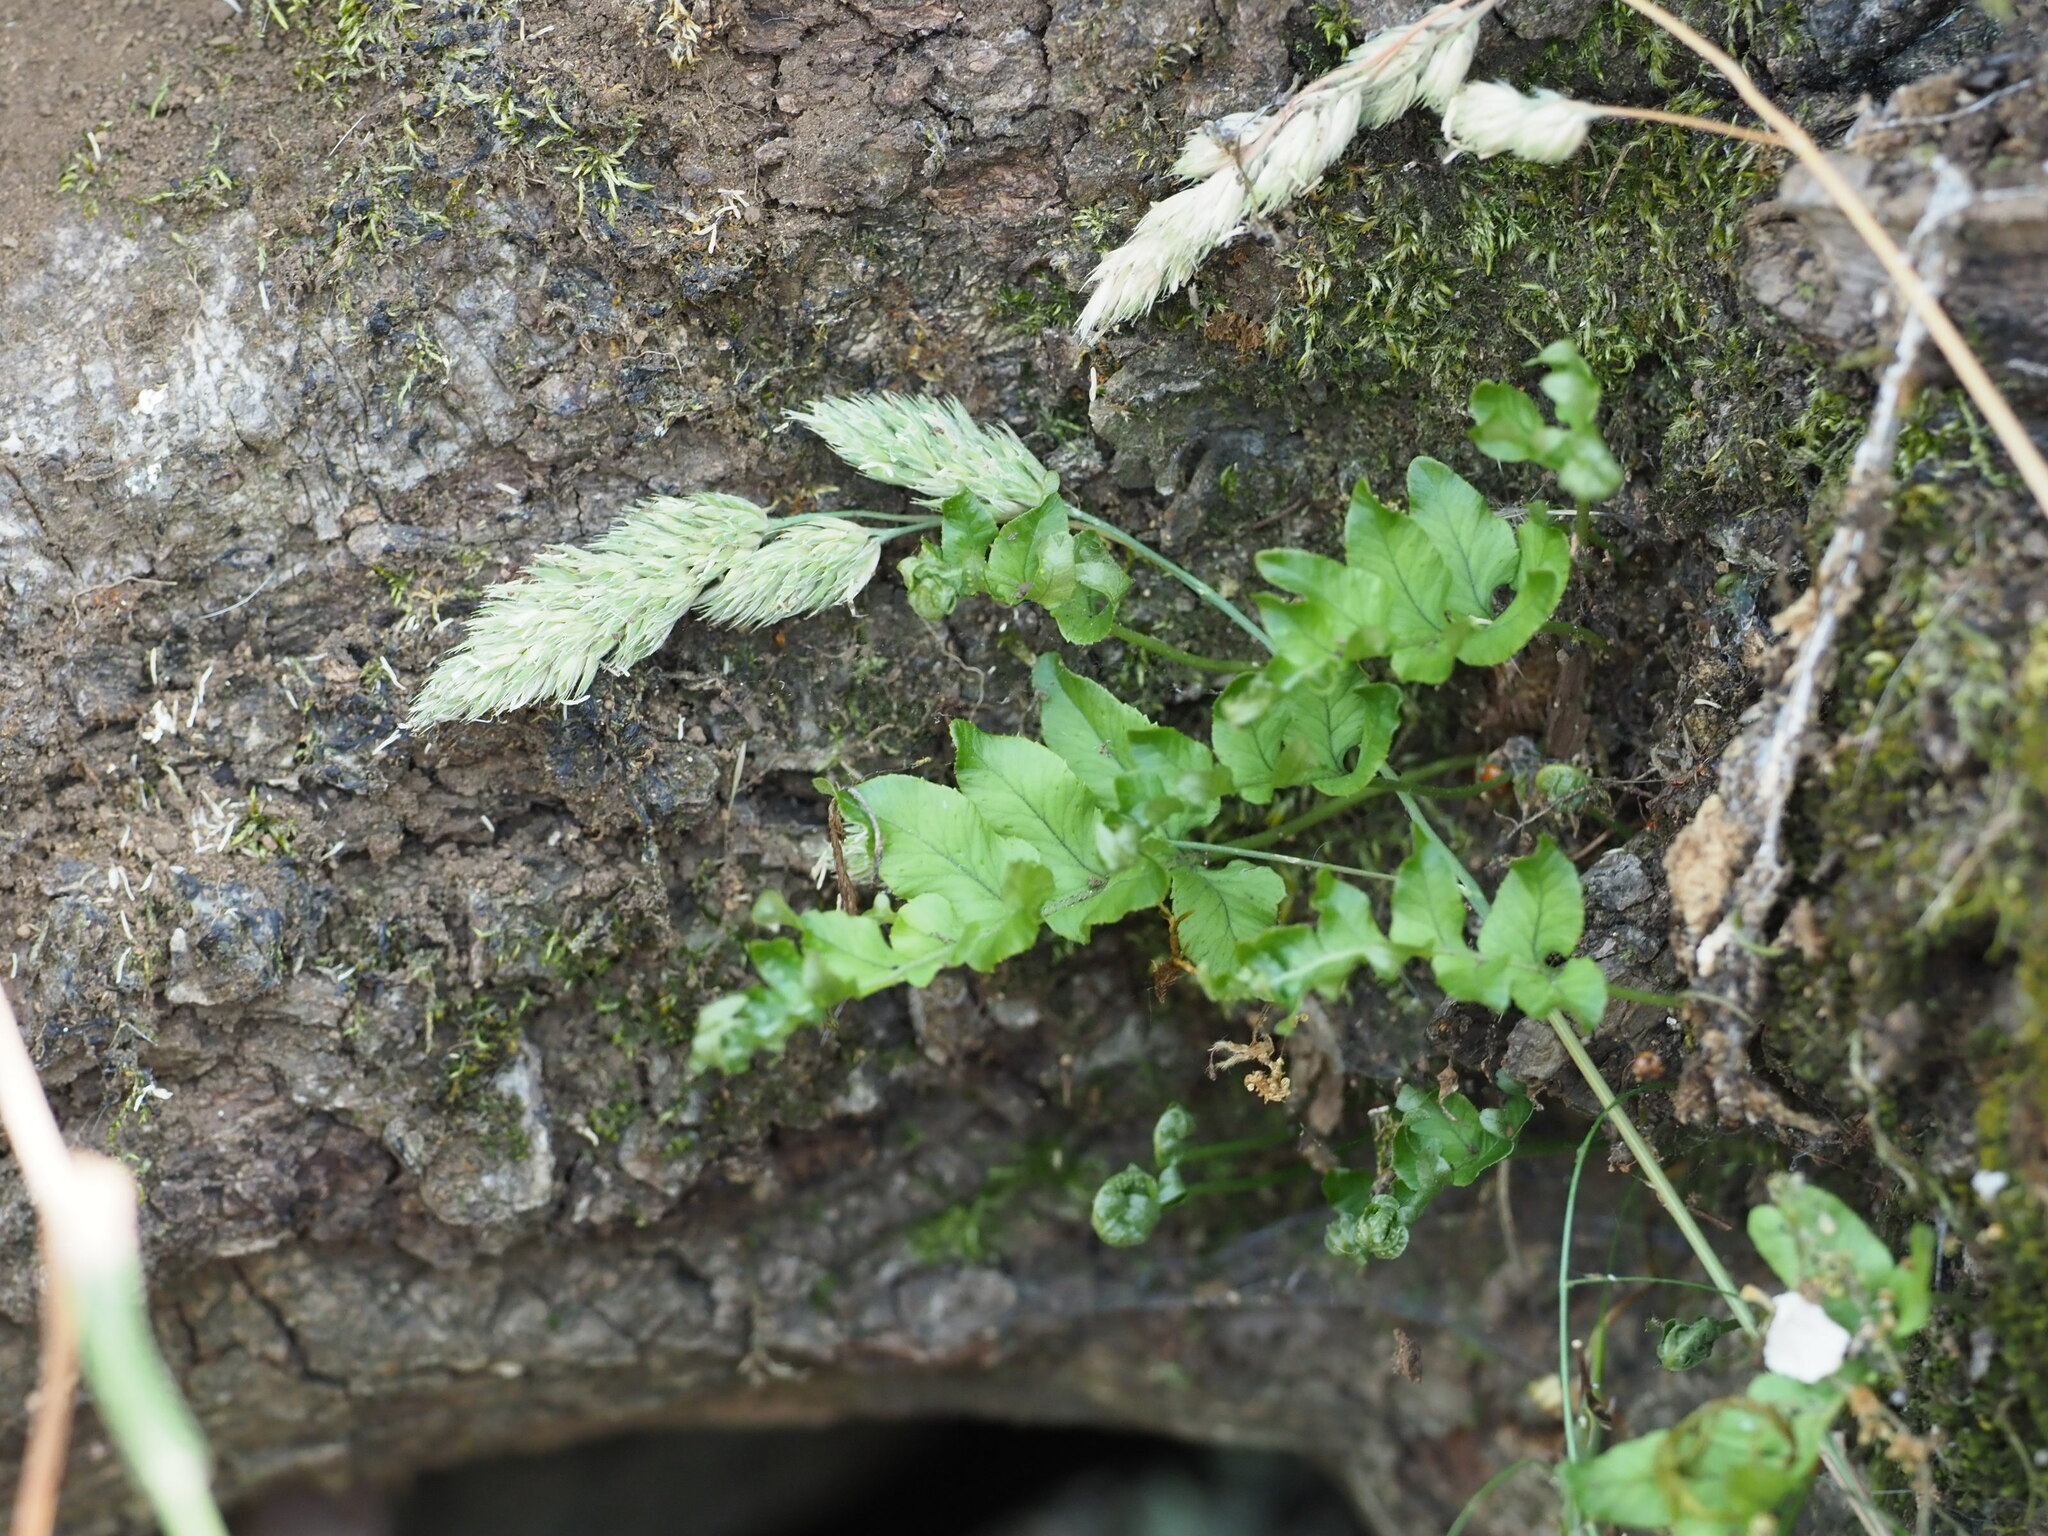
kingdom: Plantae
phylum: Tracheophyta
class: Polypodiopsida
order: Polypodiales
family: Polypodiaceae
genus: Polypodium
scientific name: Polypodium glycyrrhiza
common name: Licorice fern
